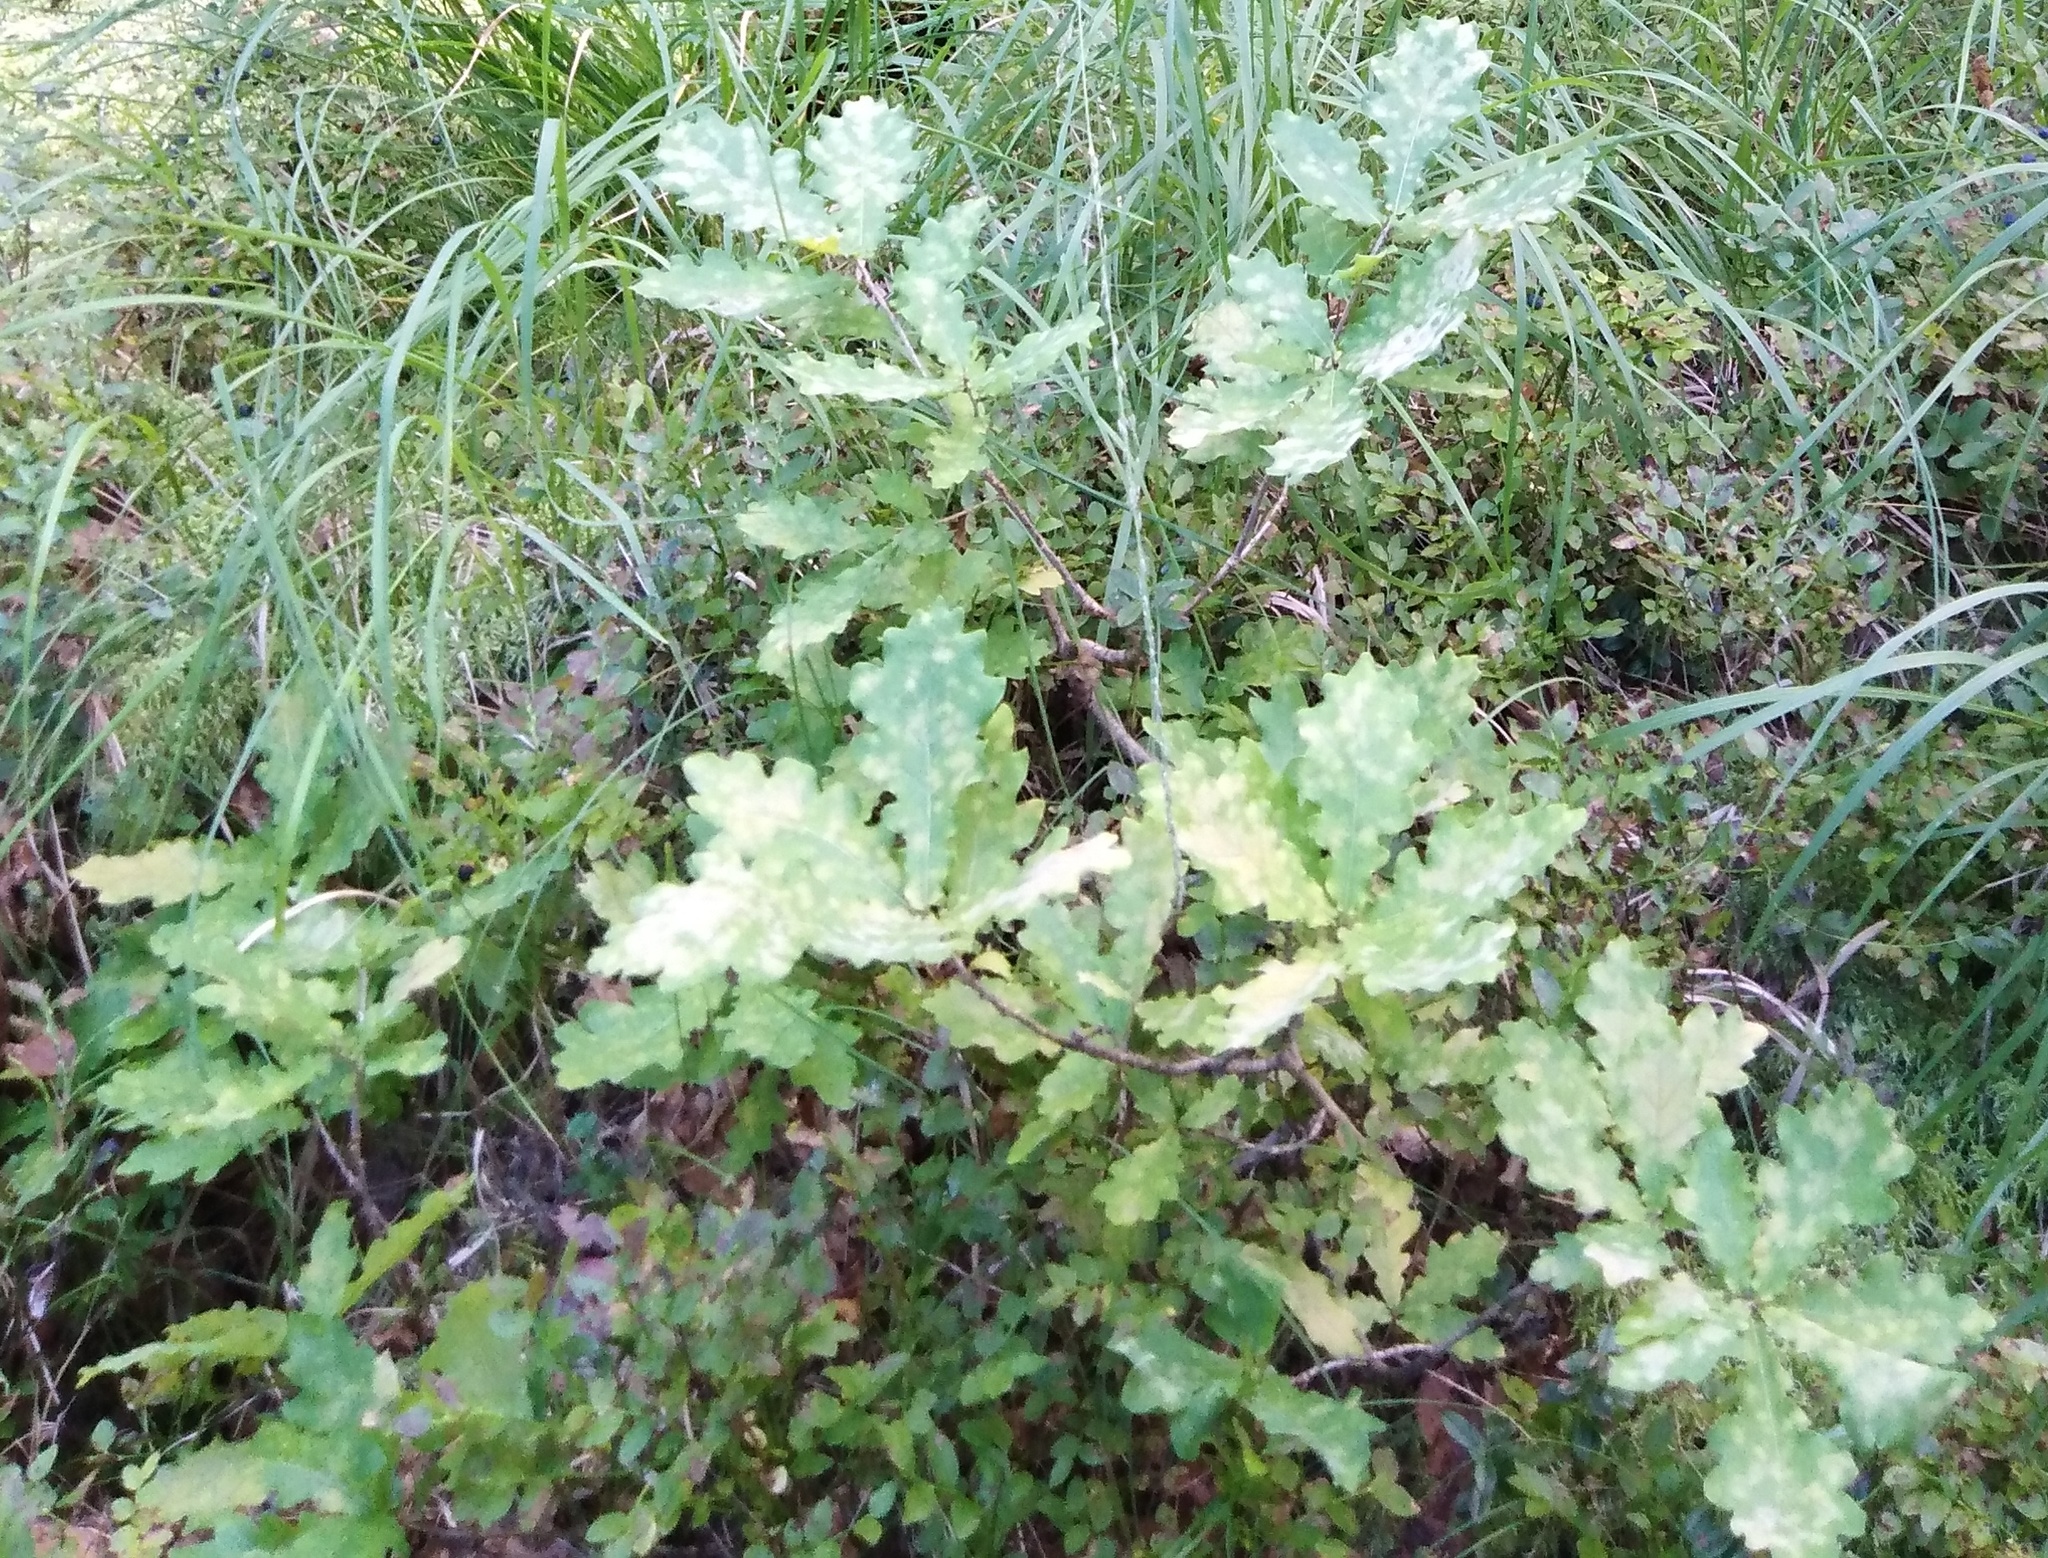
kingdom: Plantae
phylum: Tracheophyta
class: Magnoliopsida
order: Fagales
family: Fagaceae
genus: Quercus
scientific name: Quercus robur
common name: Pedunculate oak
